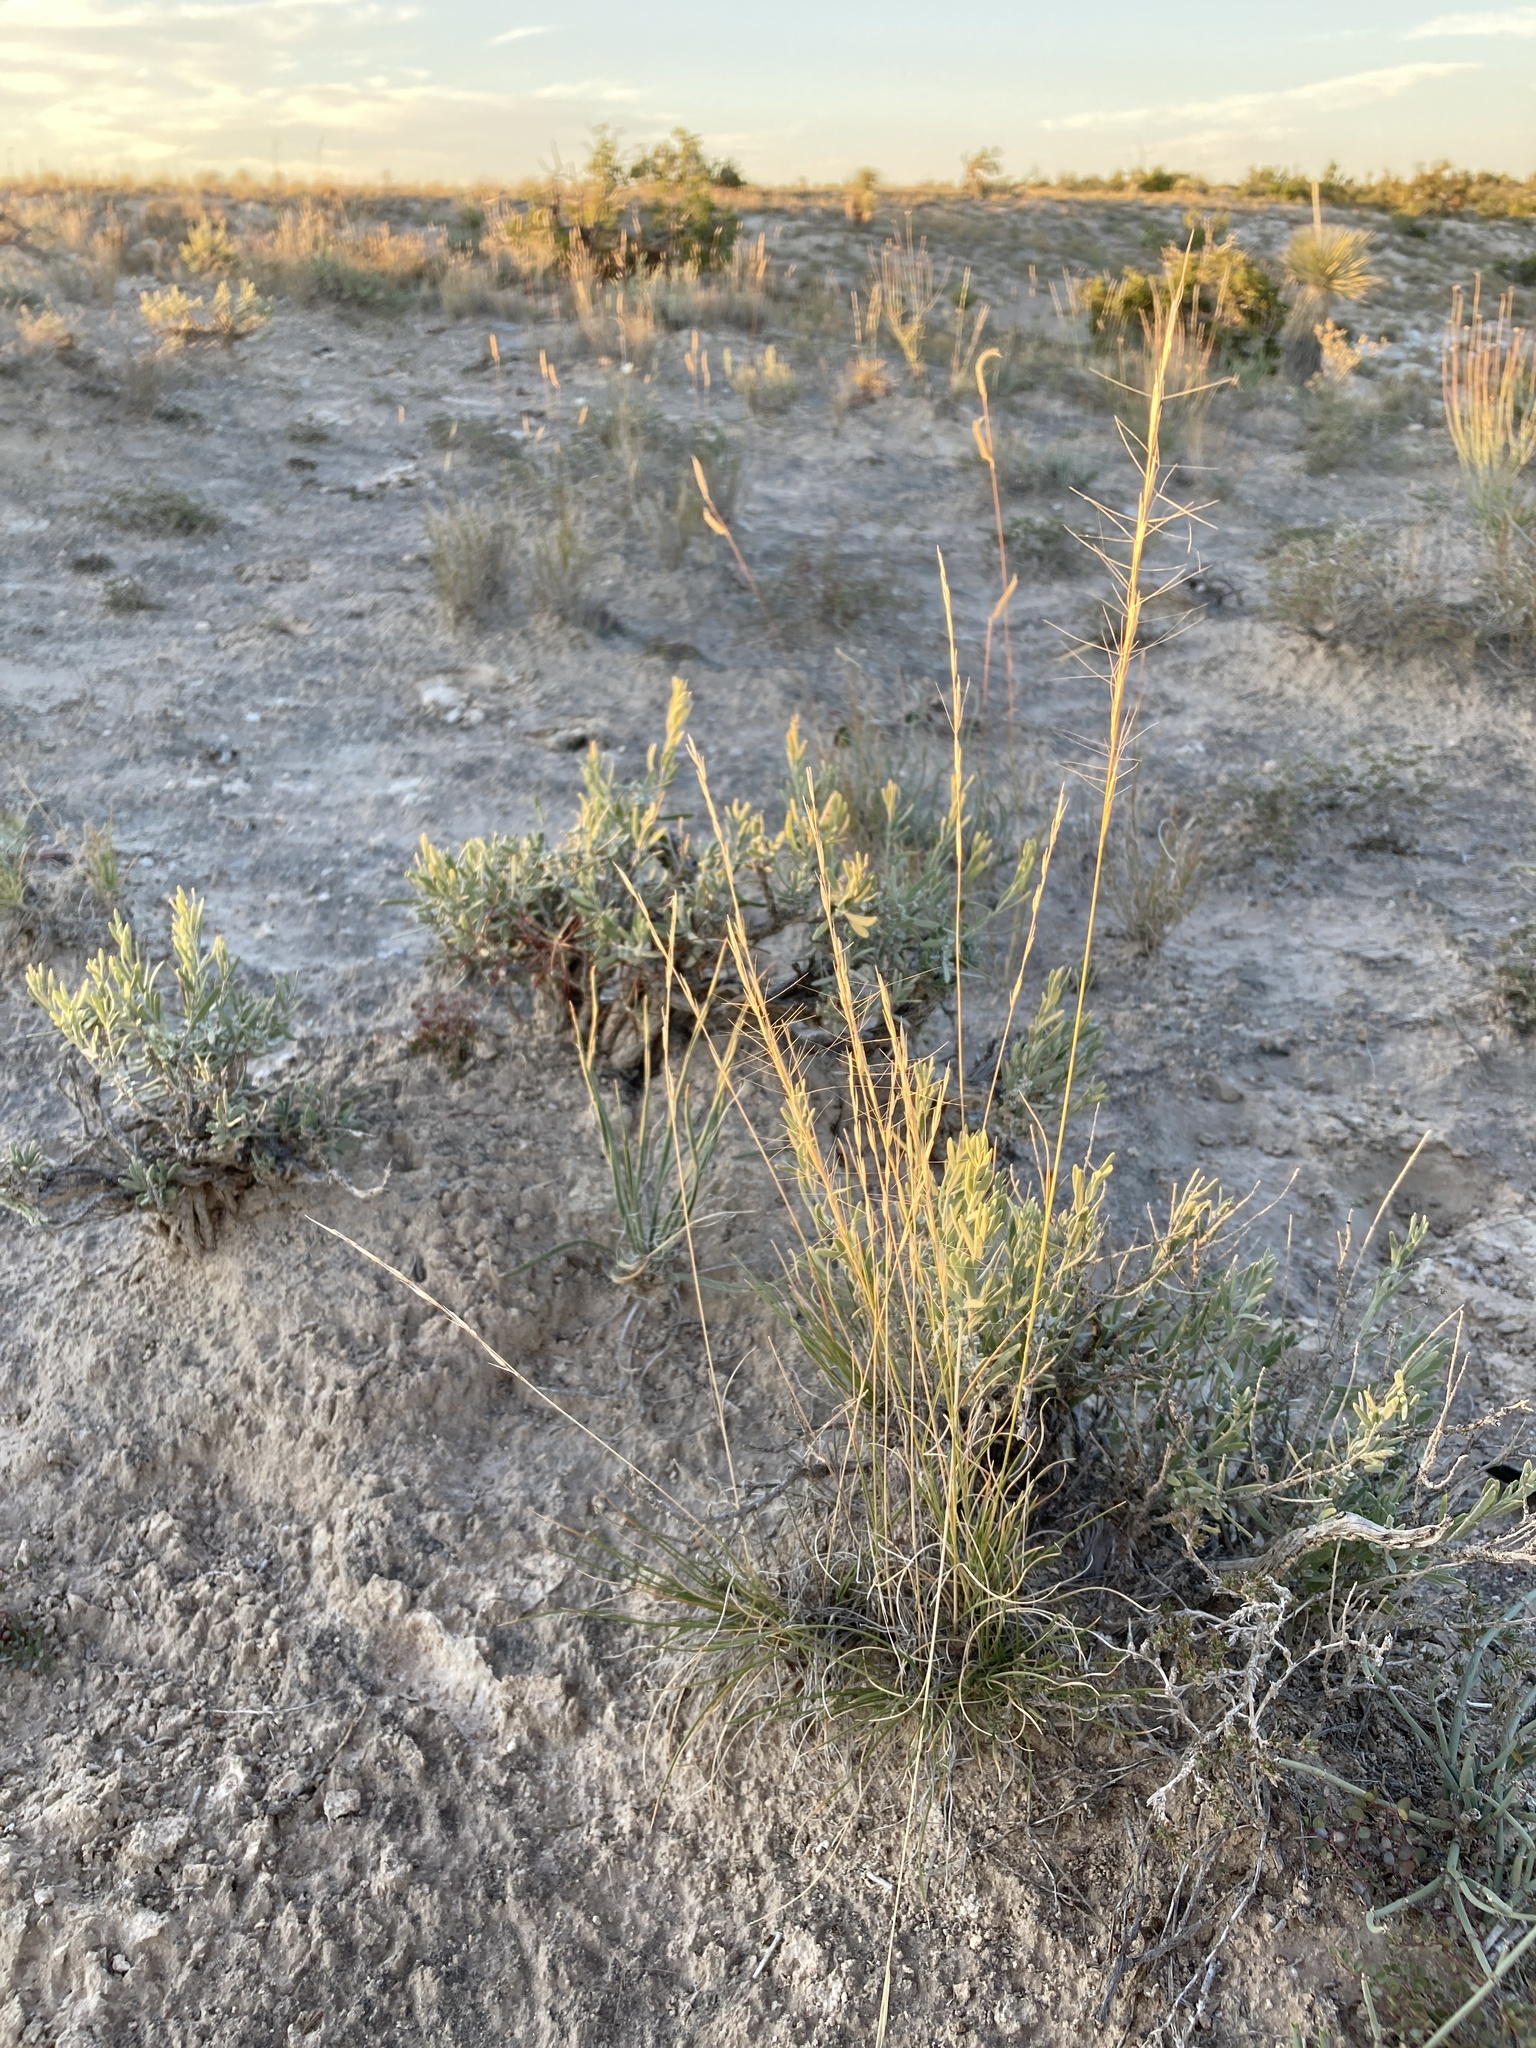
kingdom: Plantae
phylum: Tracheophyta
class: Liliopsida
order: Poales
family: Poaceae
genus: Aristida
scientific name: Aristida purpurea
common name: Purple threeawn
